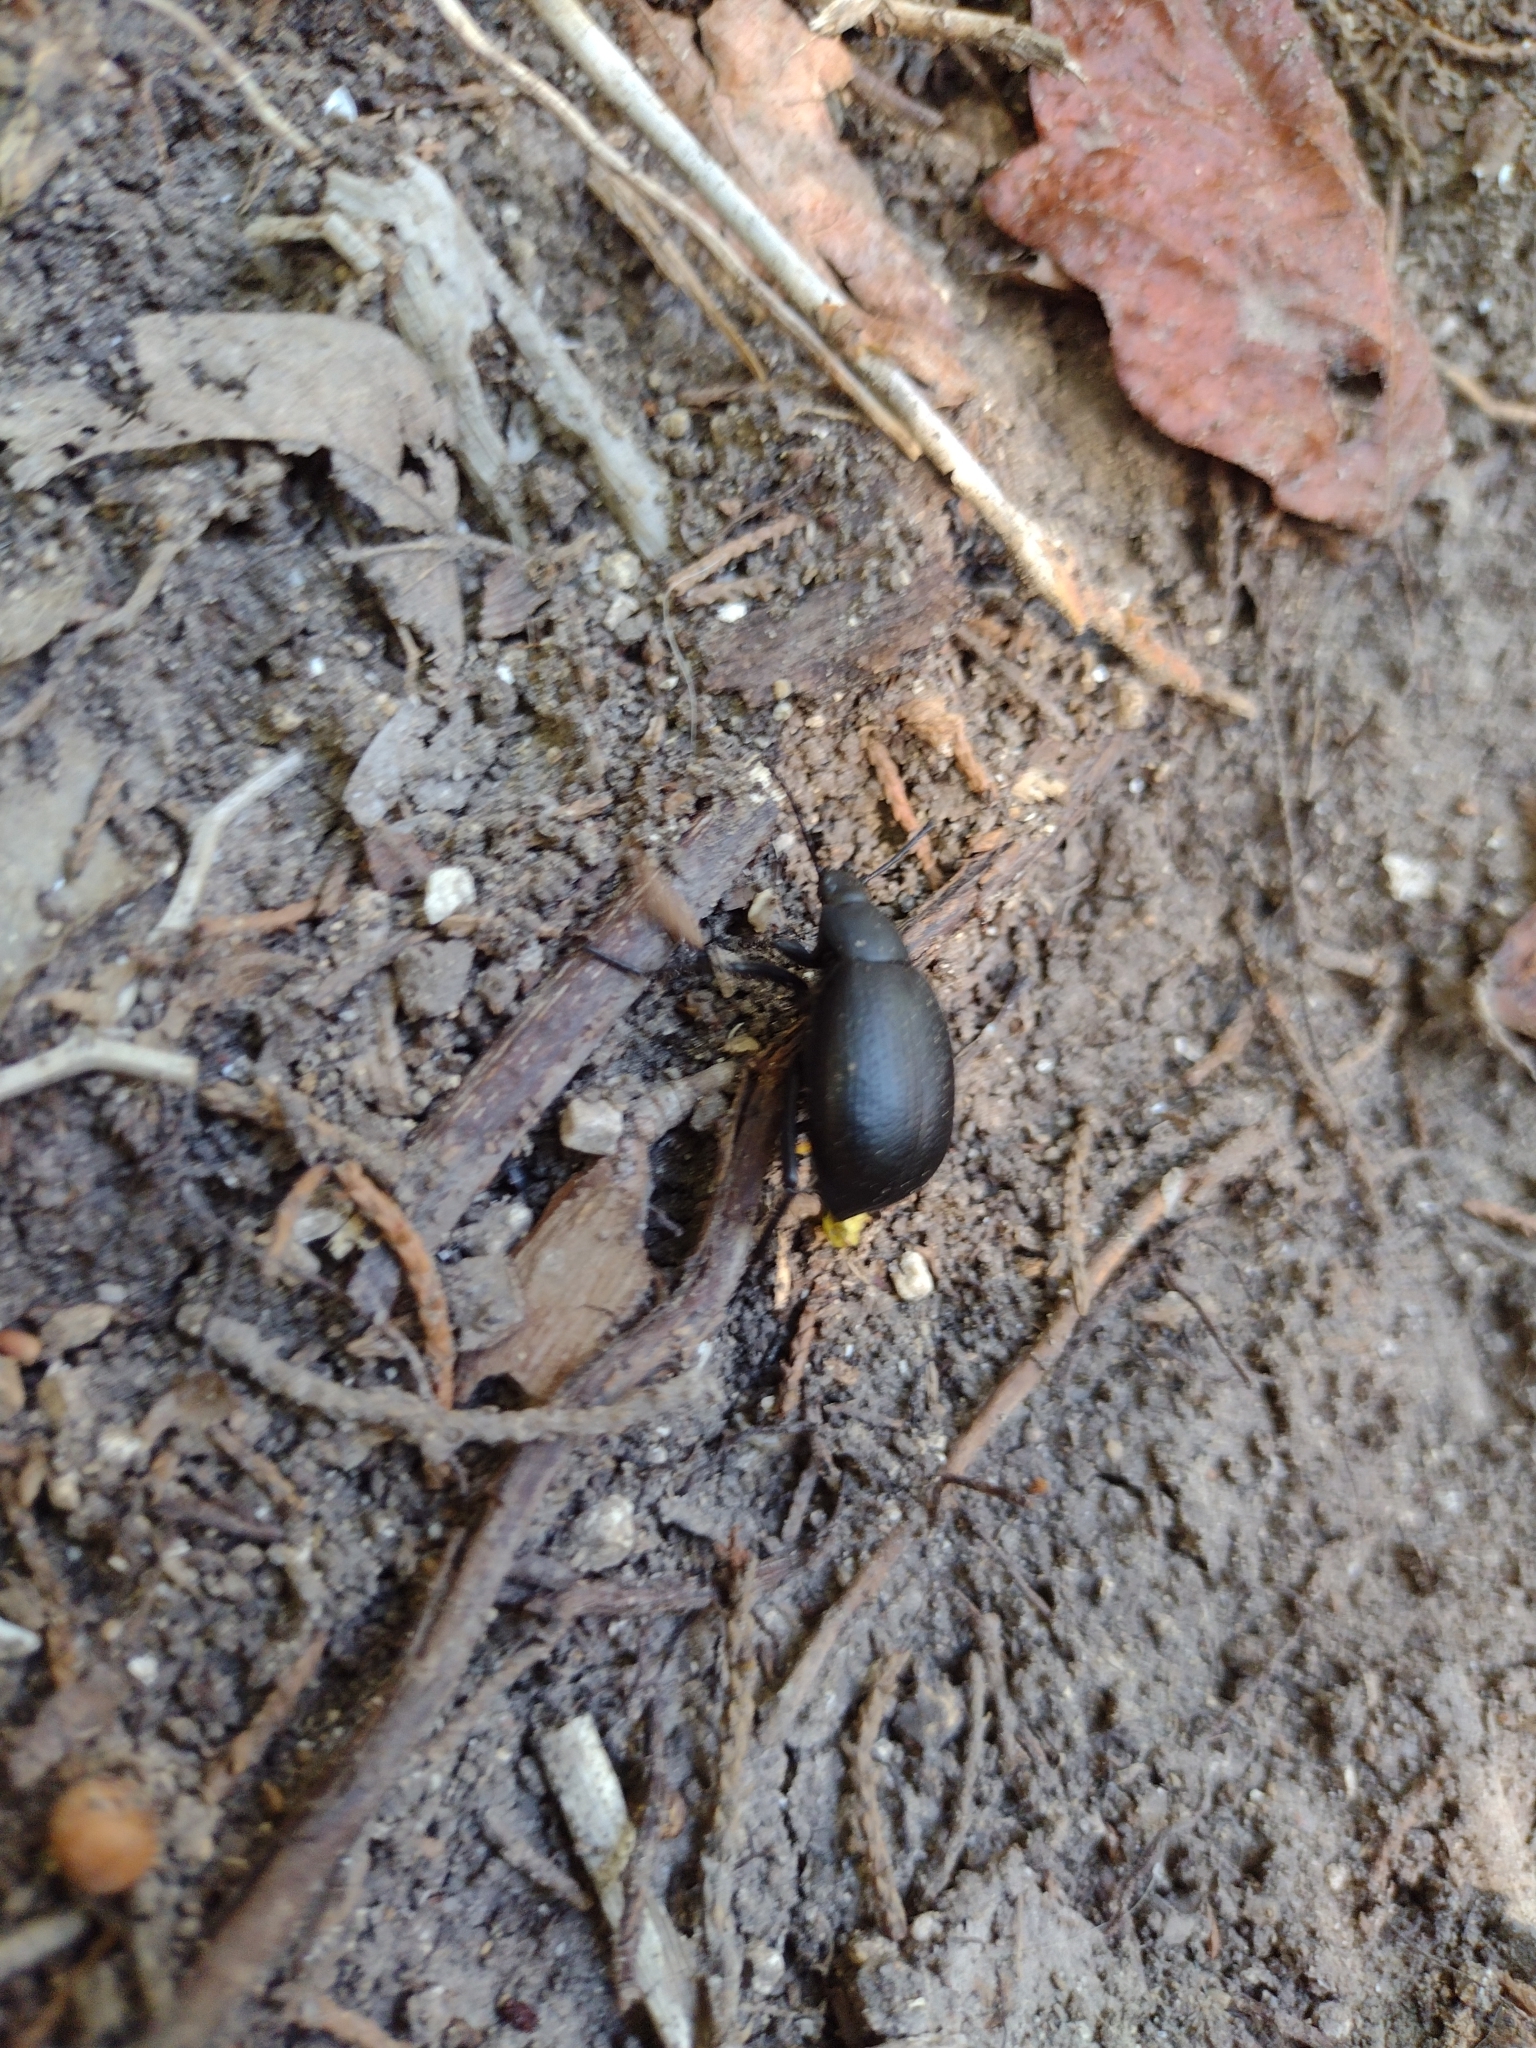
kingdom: Animalia
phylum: Arthropoda
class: Insecta
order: Coleoptera
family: Tenebrionidae
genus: Eleodes
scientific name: Eleodes goryi
